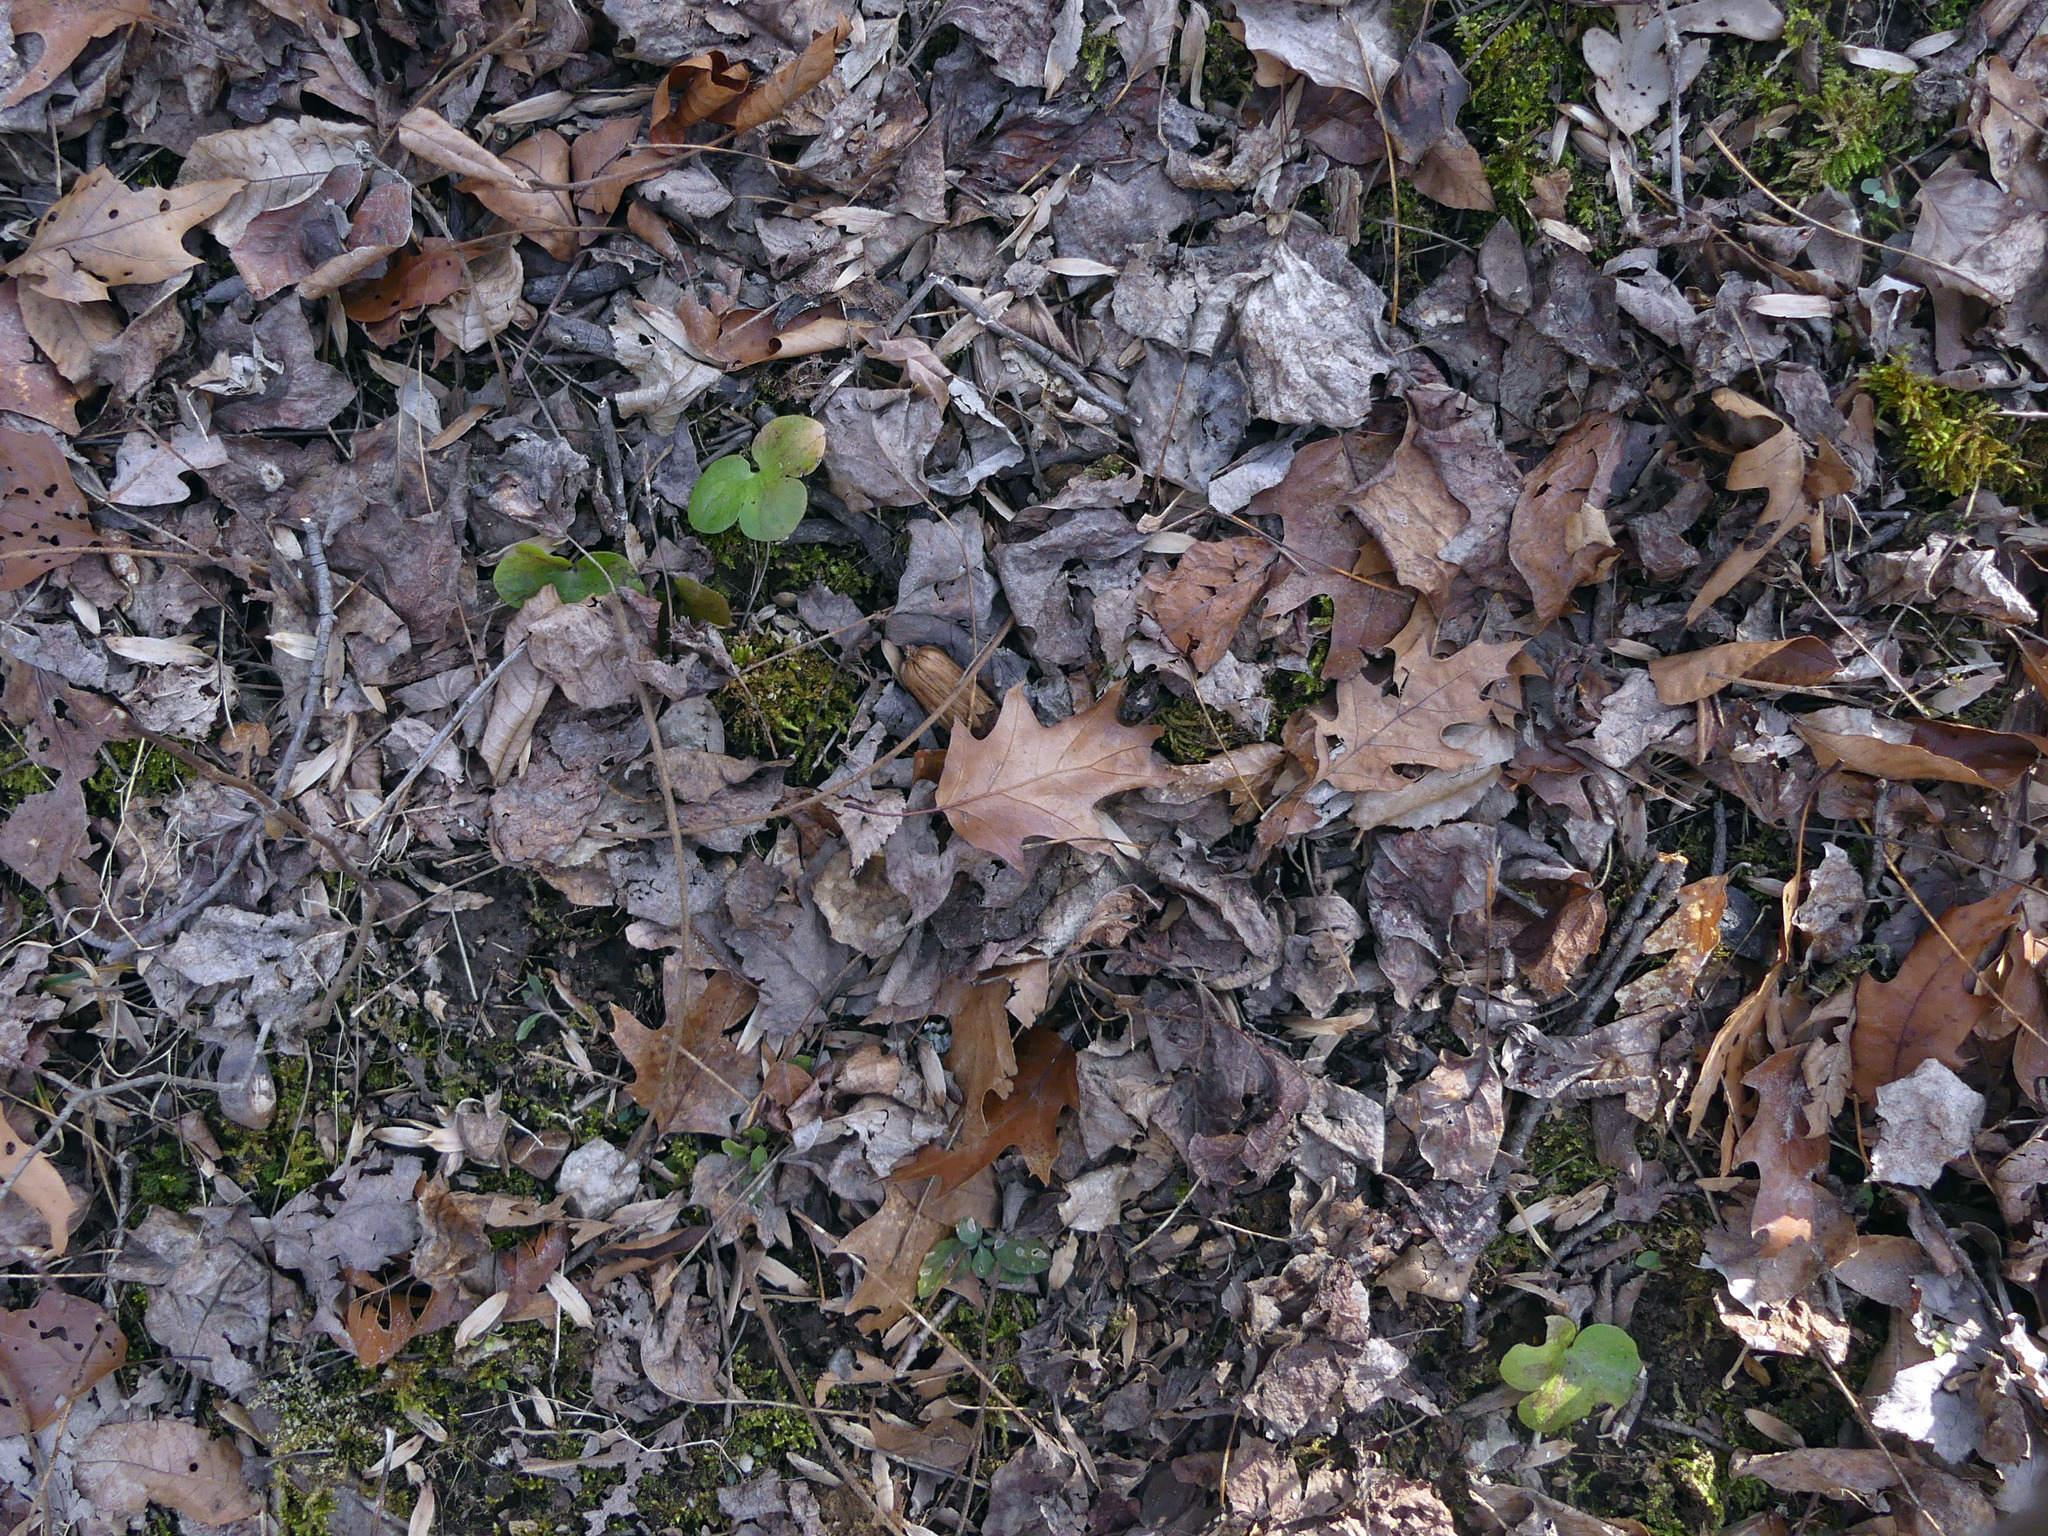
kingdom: Plantae
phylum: Tracheophyta
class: Magnoliopsida
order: Ranunculales
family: Ranunculaceae
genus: Hepatica
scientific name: Hepatica americana
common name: American hepatica
